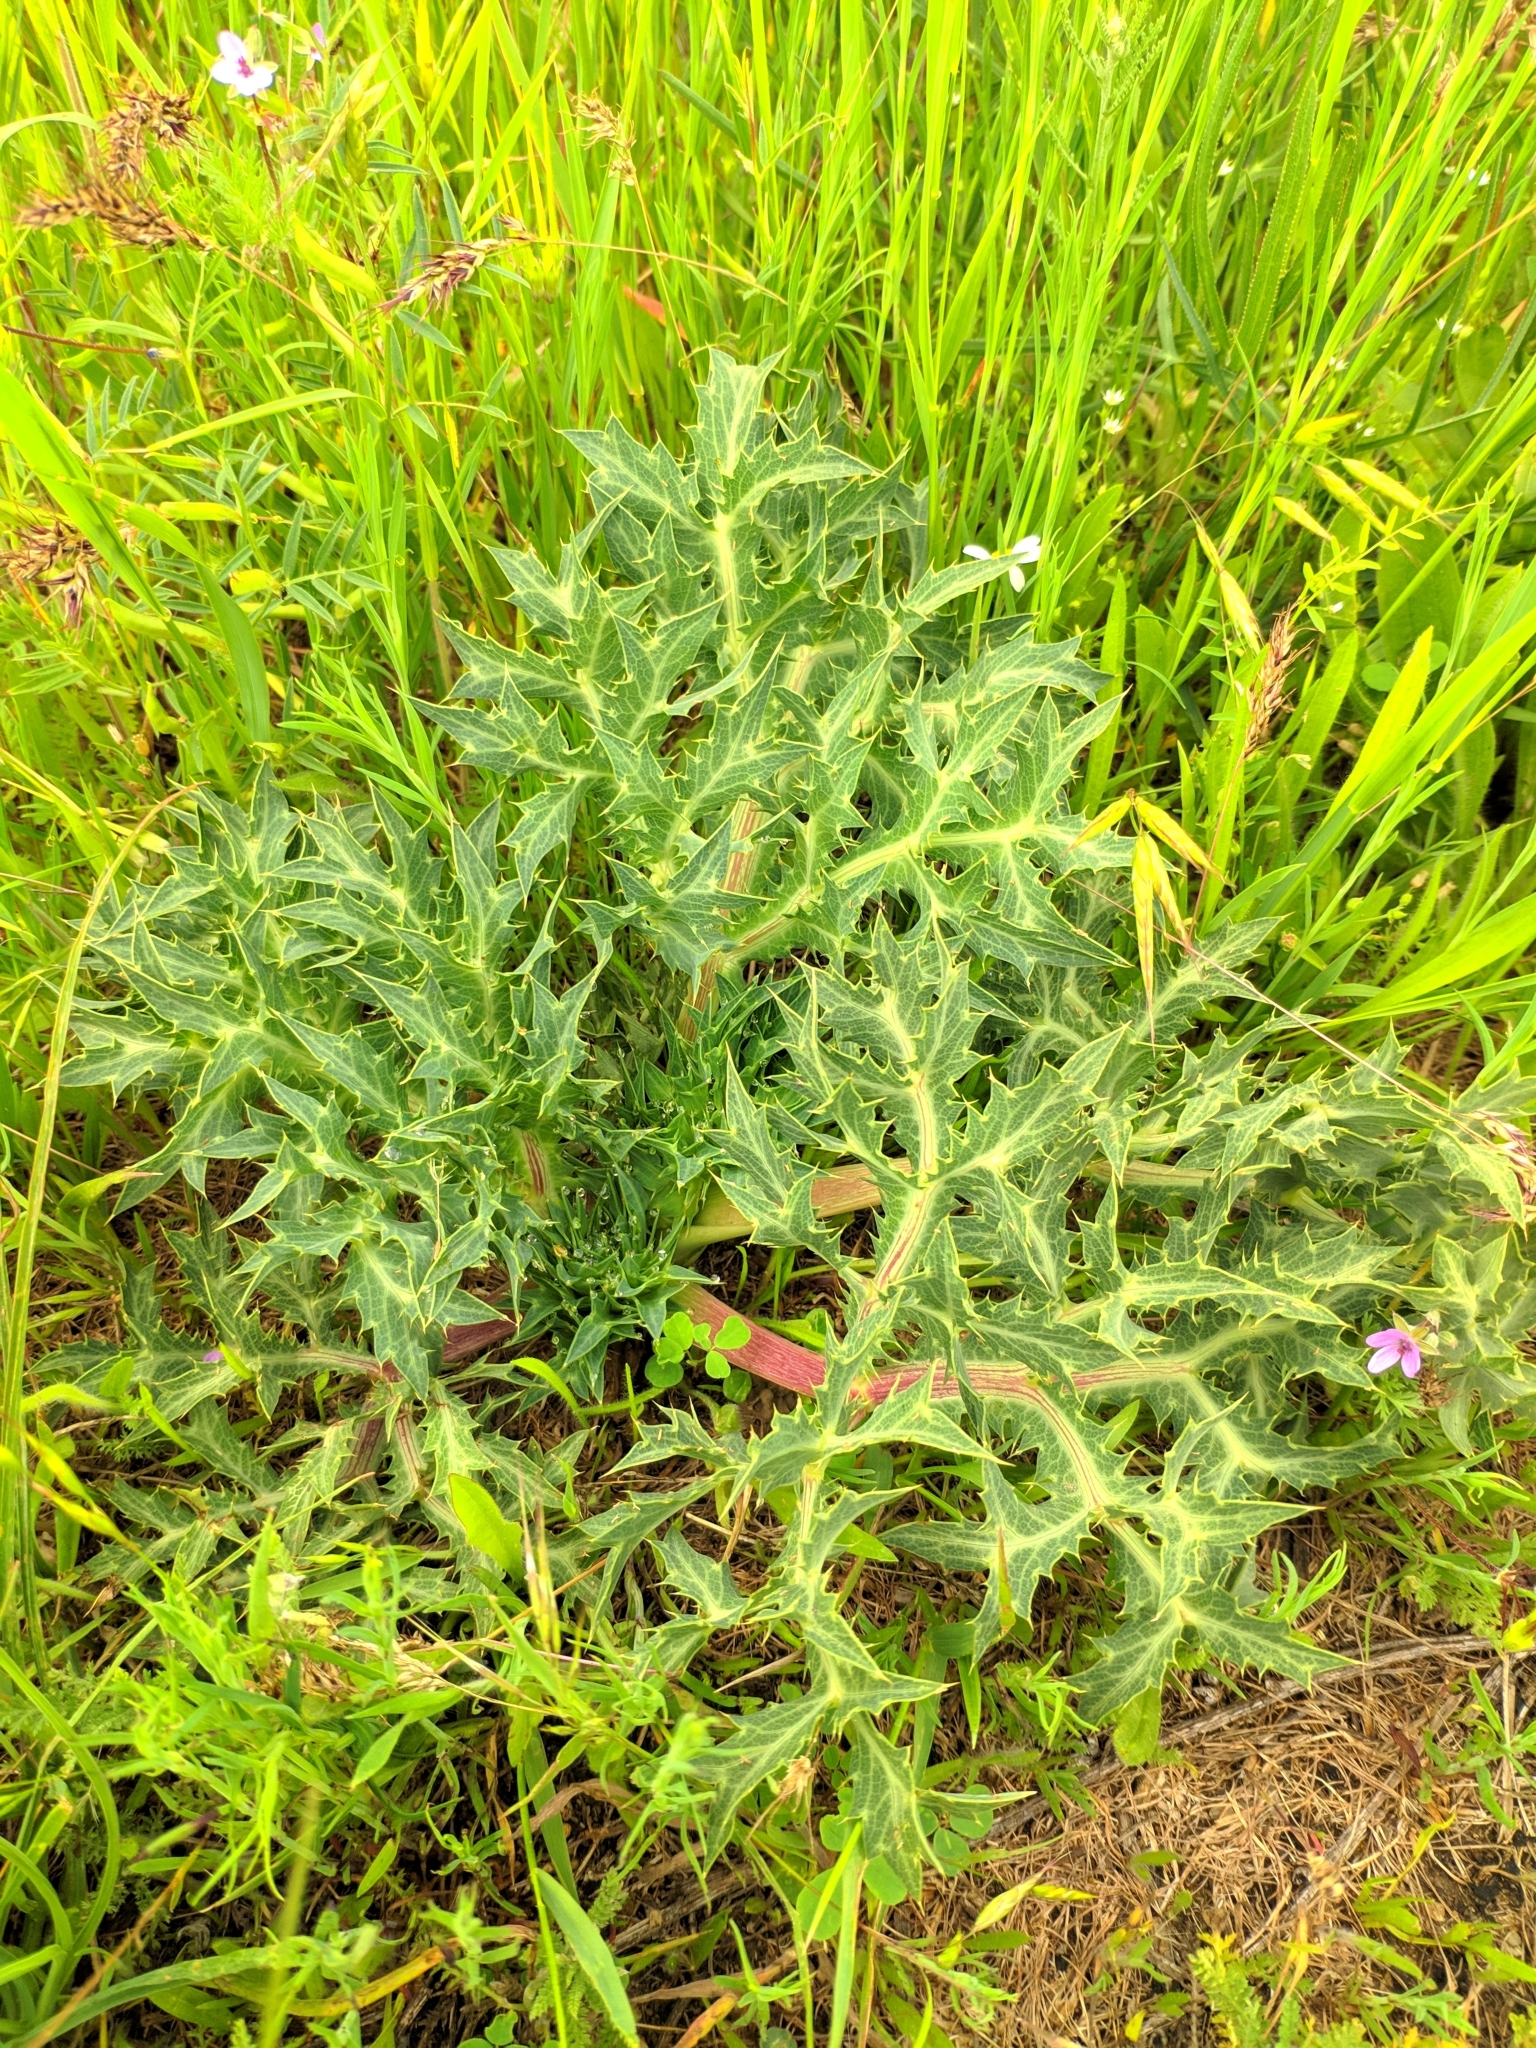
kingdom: Plantae
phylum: Tracheophyta
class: Magnoliopsida
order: Apiales
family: Apiaceae
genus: Eryngium
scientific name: Eryngium campestre
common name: Field eryngo
